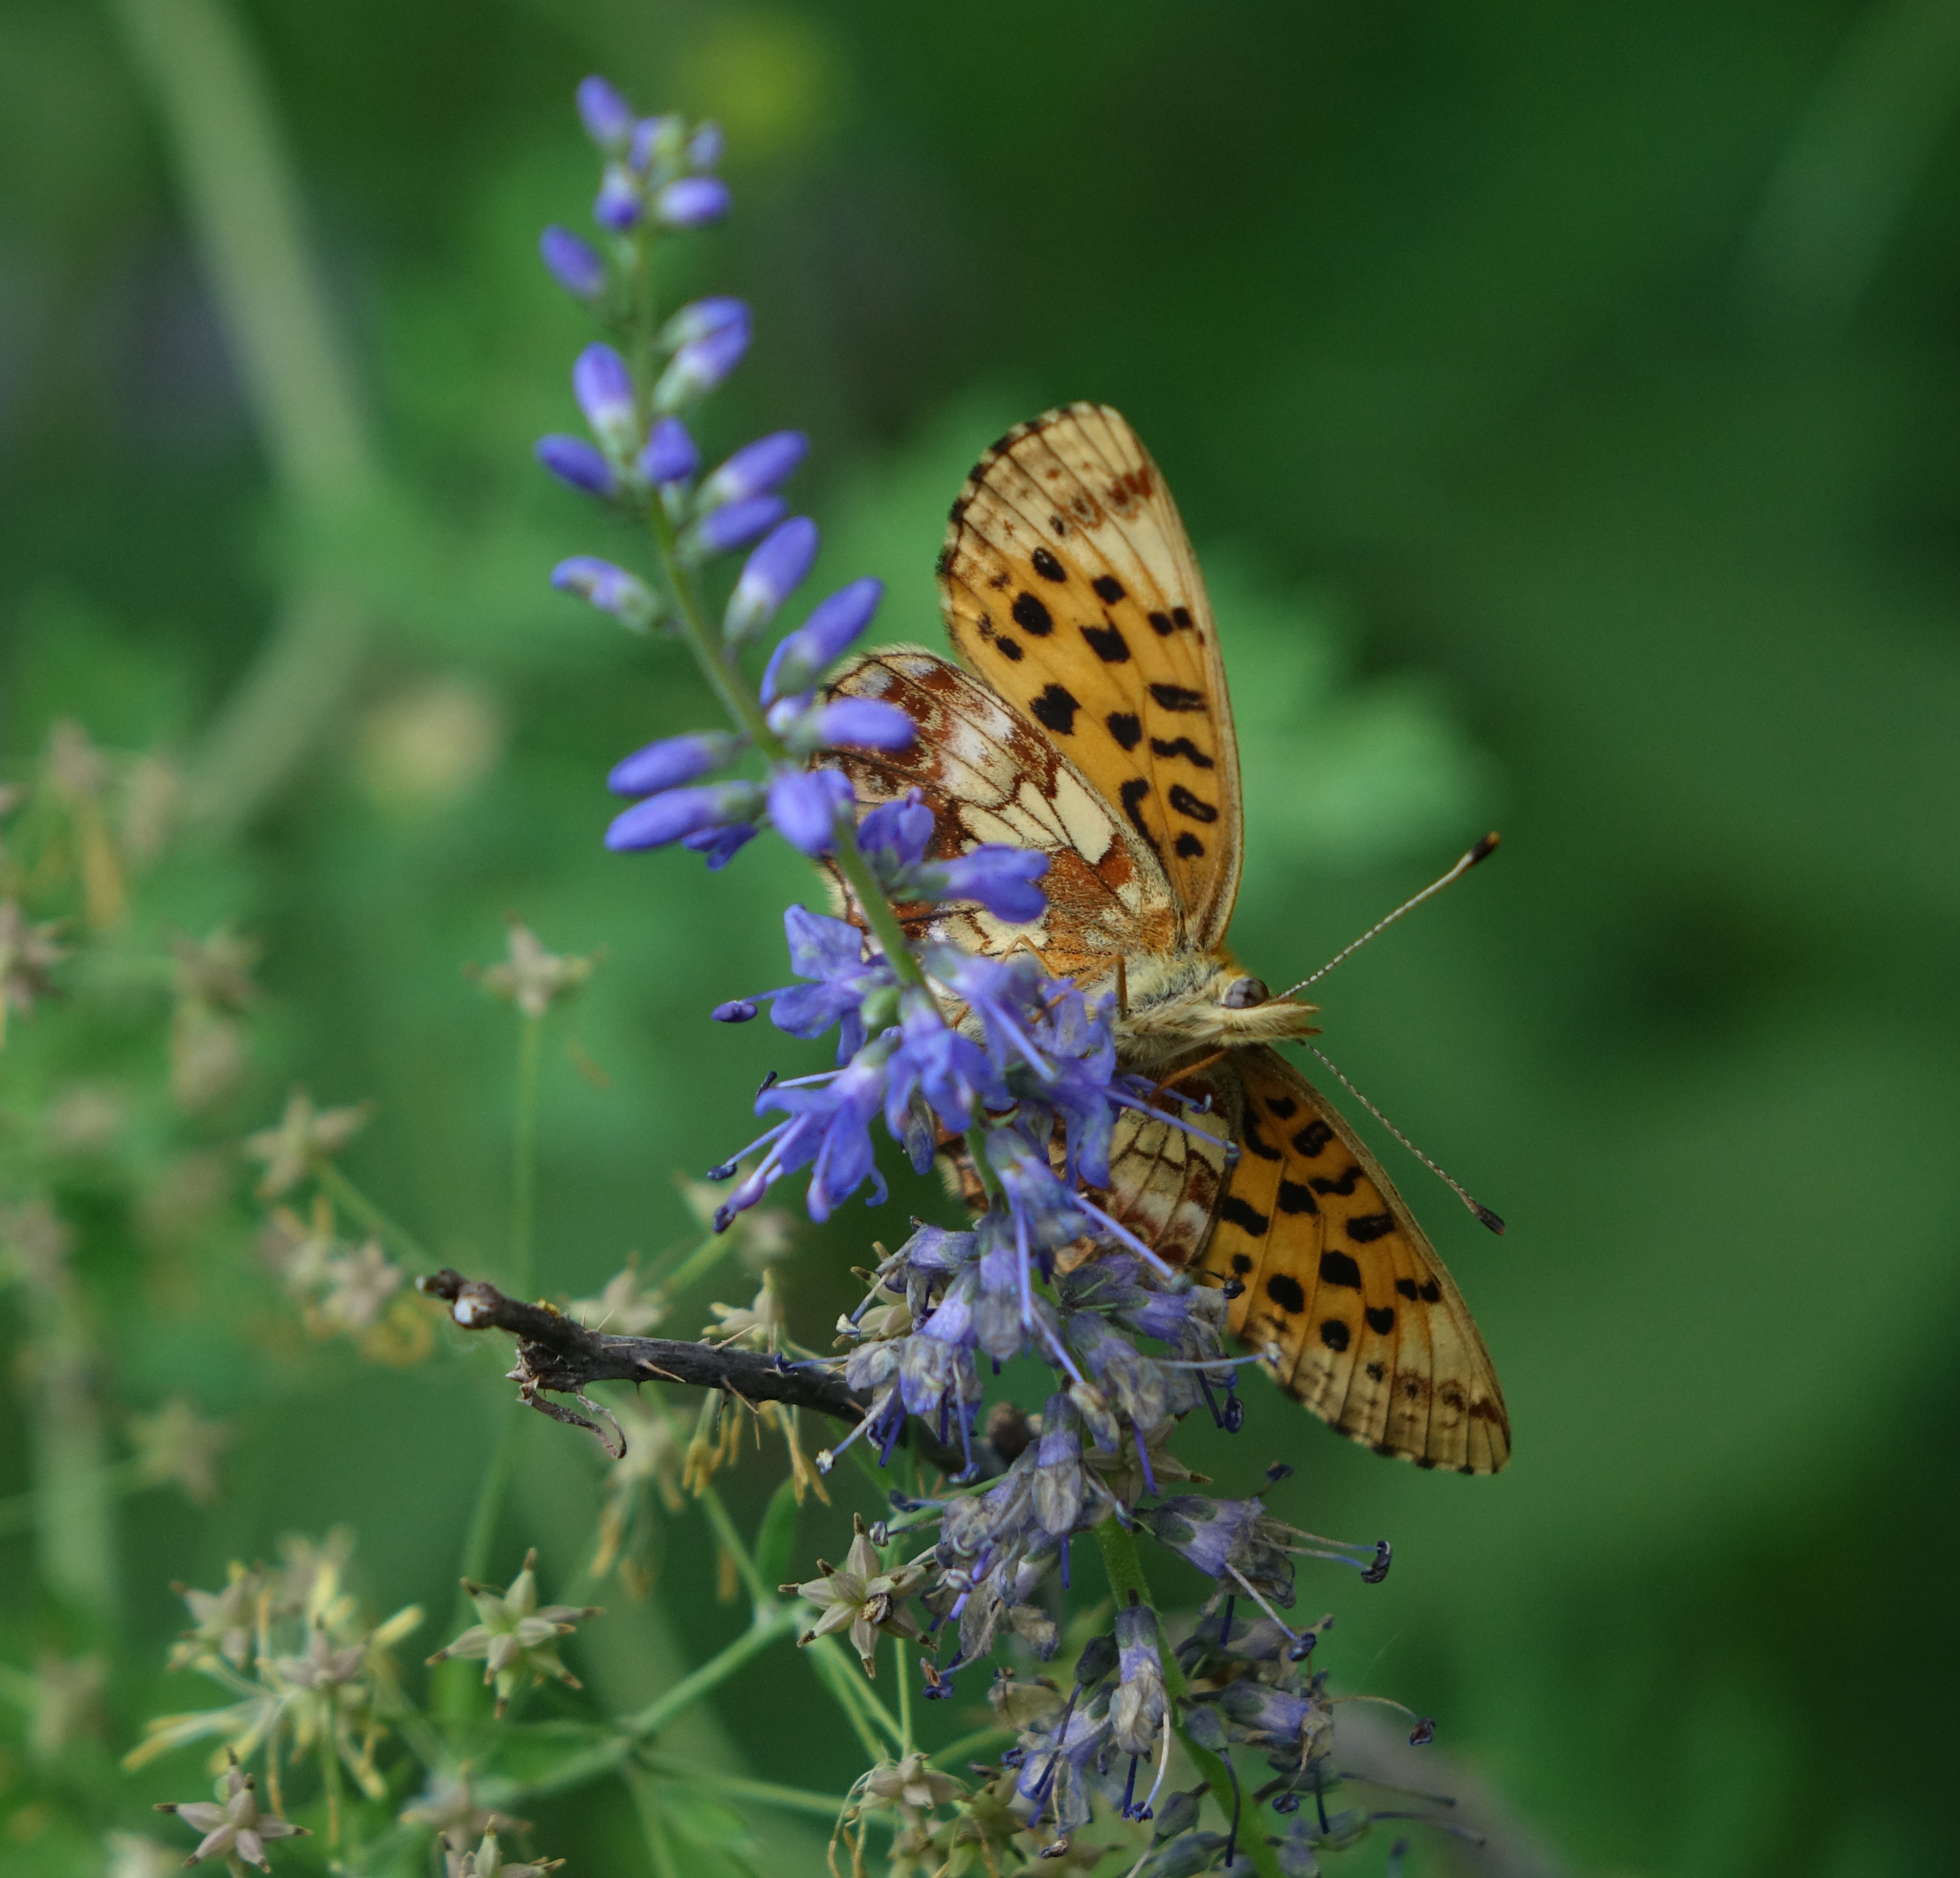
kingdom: Plantae
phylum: Tracheophyta
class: Magnoliopsida
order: Lamiales
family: Plantaginaceae
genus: Veronica
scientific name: Veronica longifolia
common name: Garden speedwell
